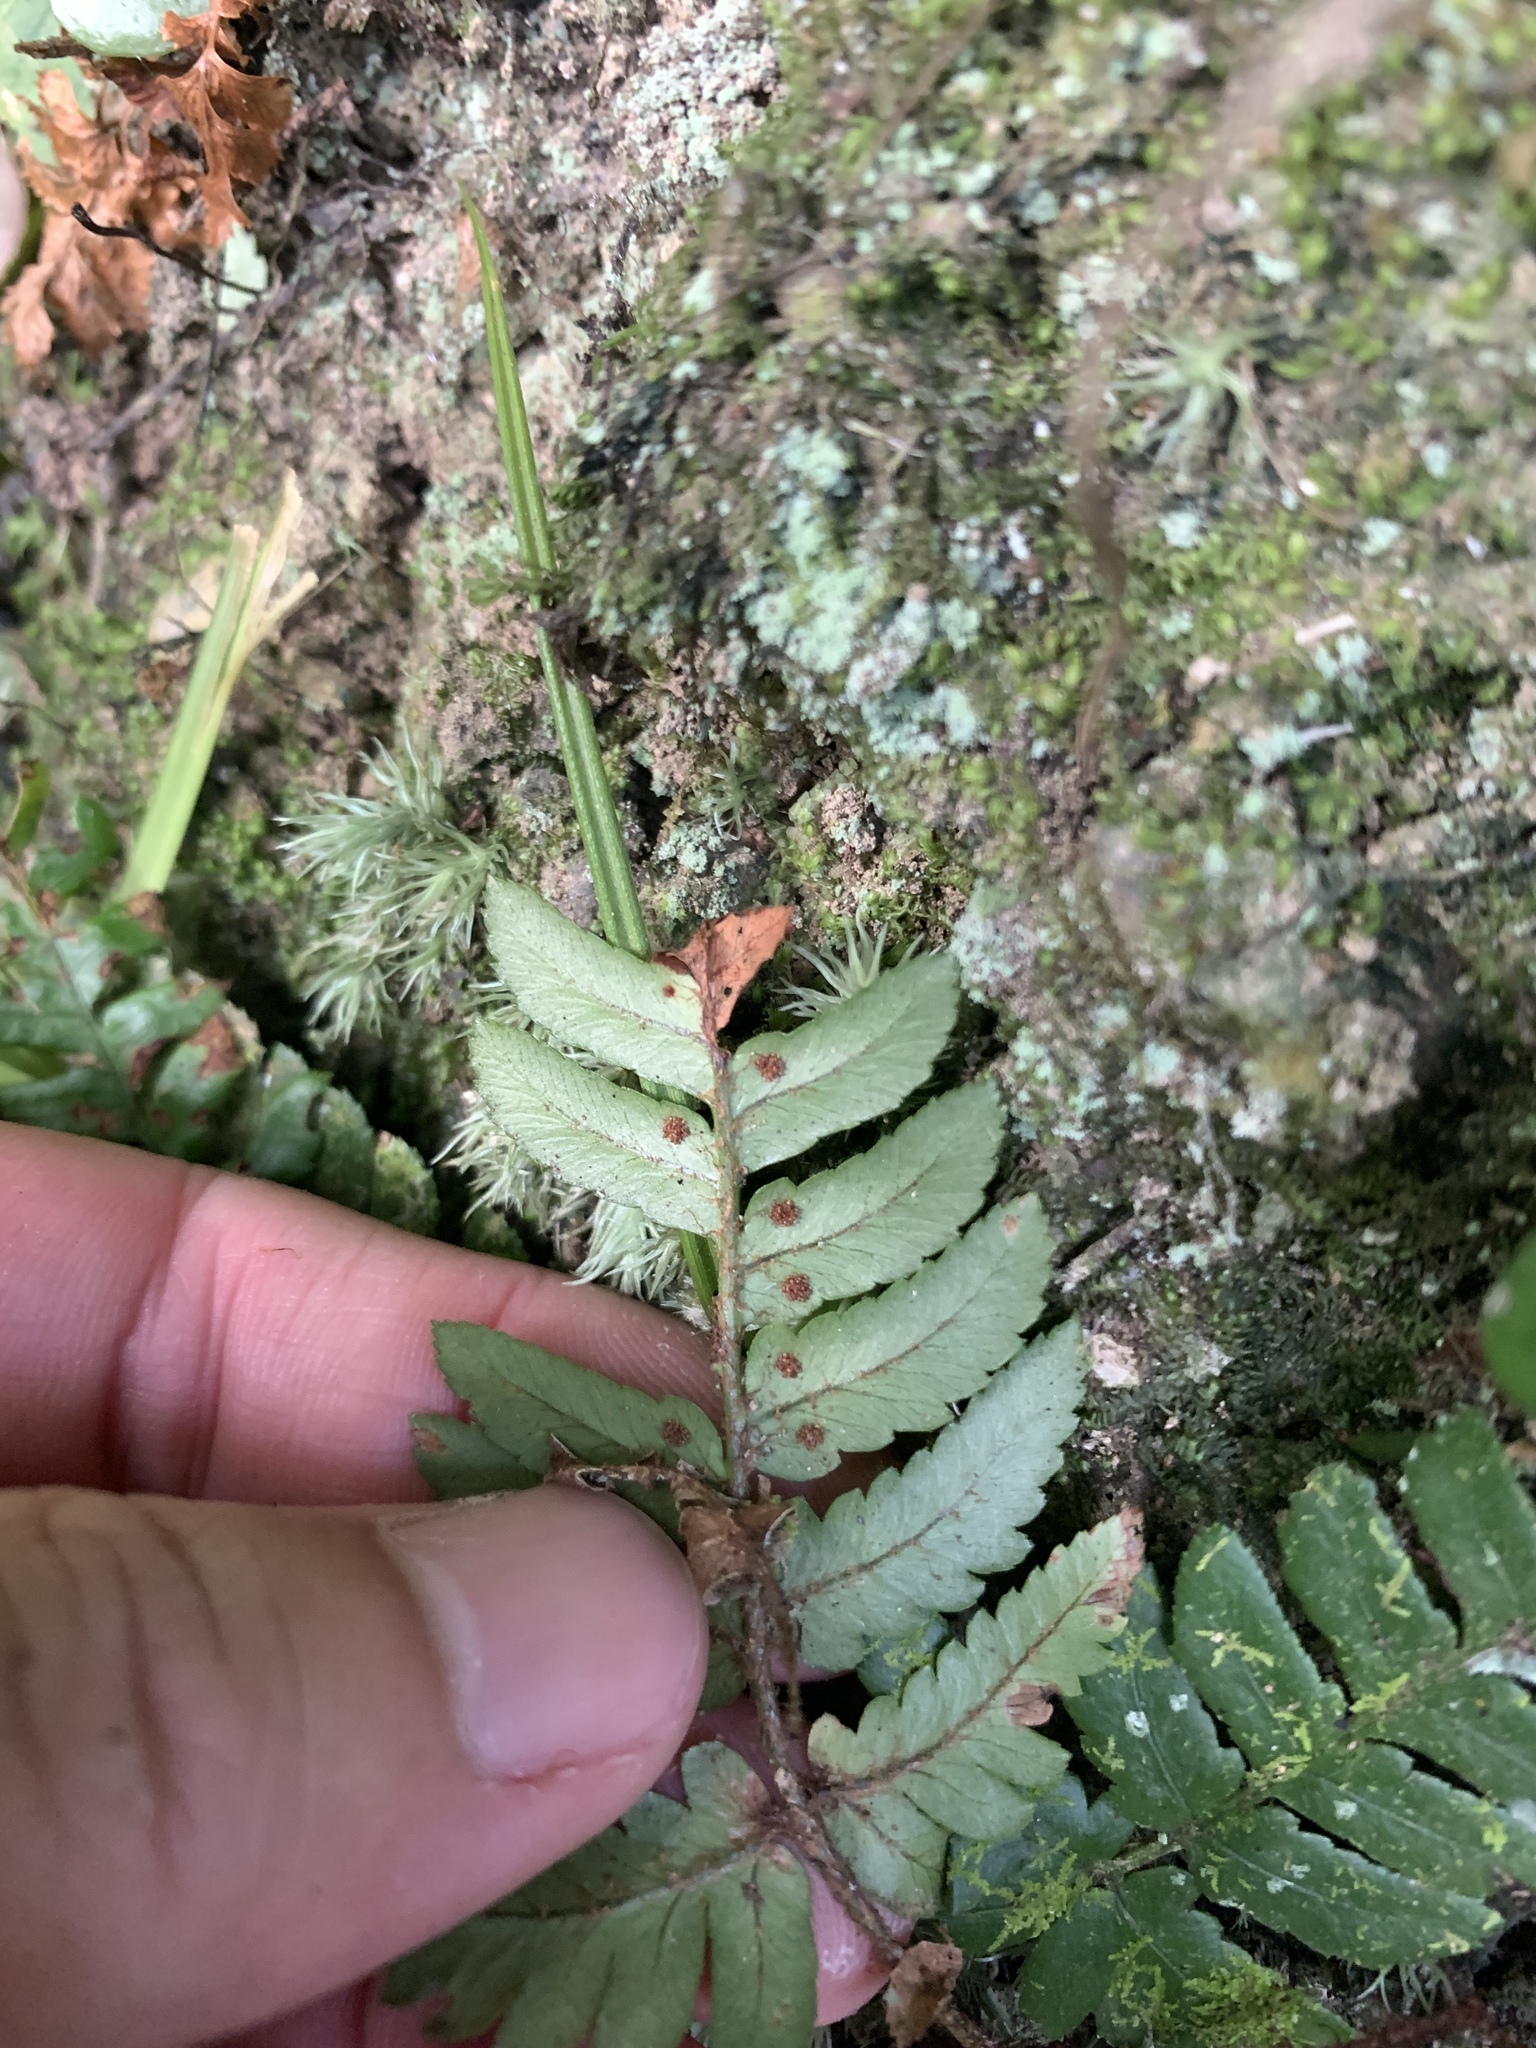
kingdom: Plantae
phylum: Tracheophyta
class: Polypodiopsida
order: Polypodiales
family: Dryopteridaceae
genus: Dryopteris
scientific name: Dryopteris varia
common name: Japanese holly fern
